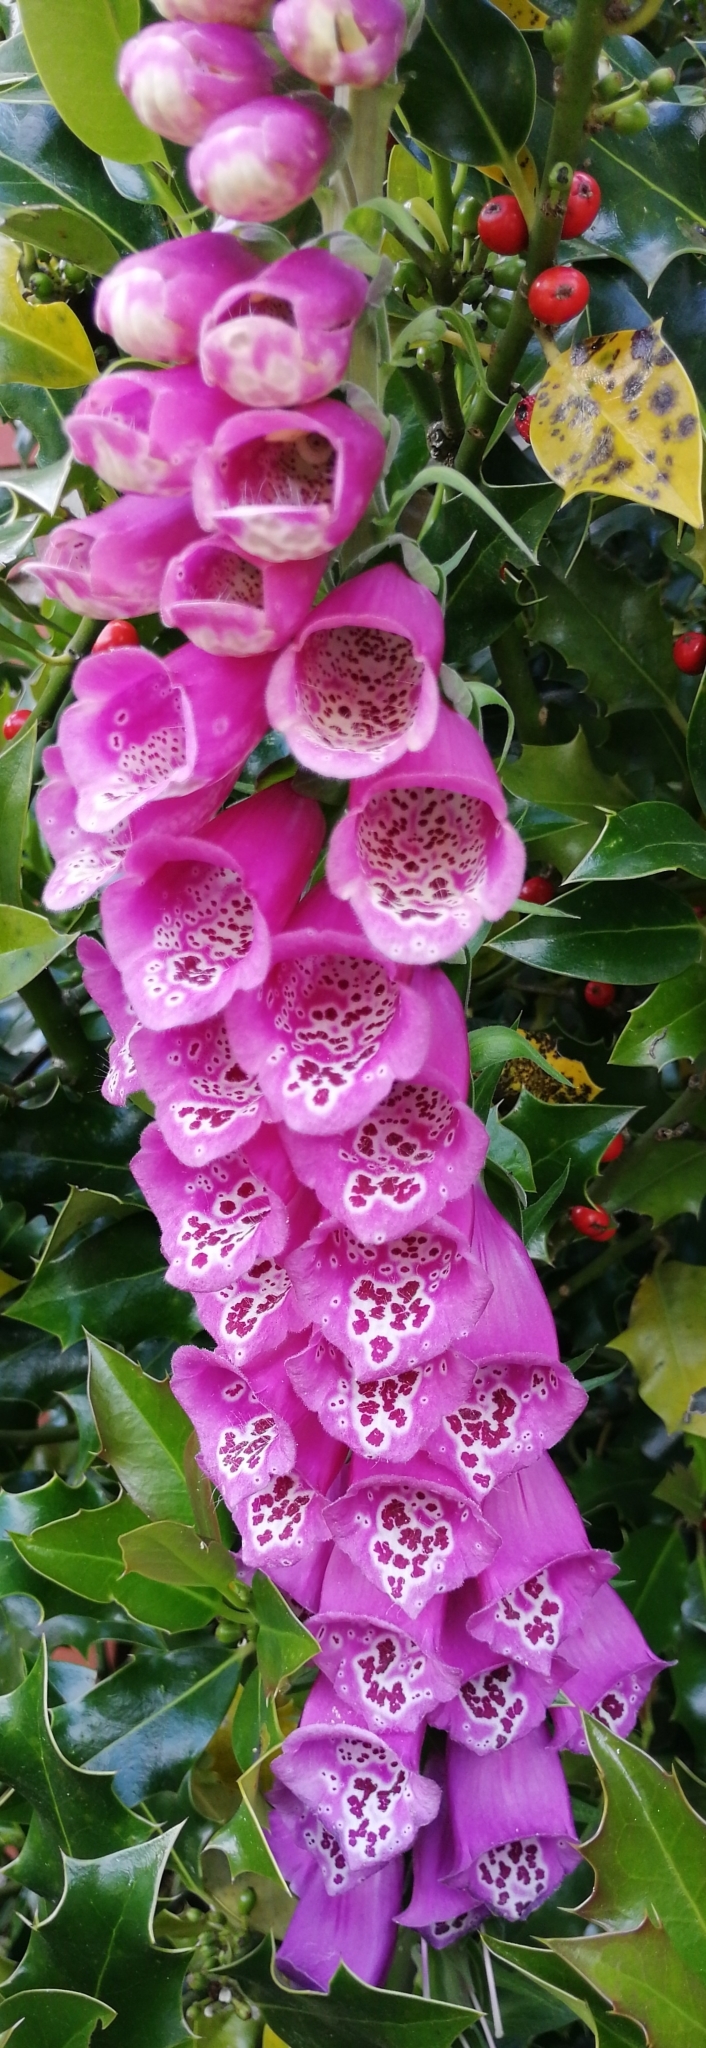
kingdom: Plantae
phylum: Tracheophyta
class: Magnoliopsida
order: Lamiales
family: Plantaginaceae
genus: Digitalis
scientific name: Digitalis purpurea
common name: Foxglove
